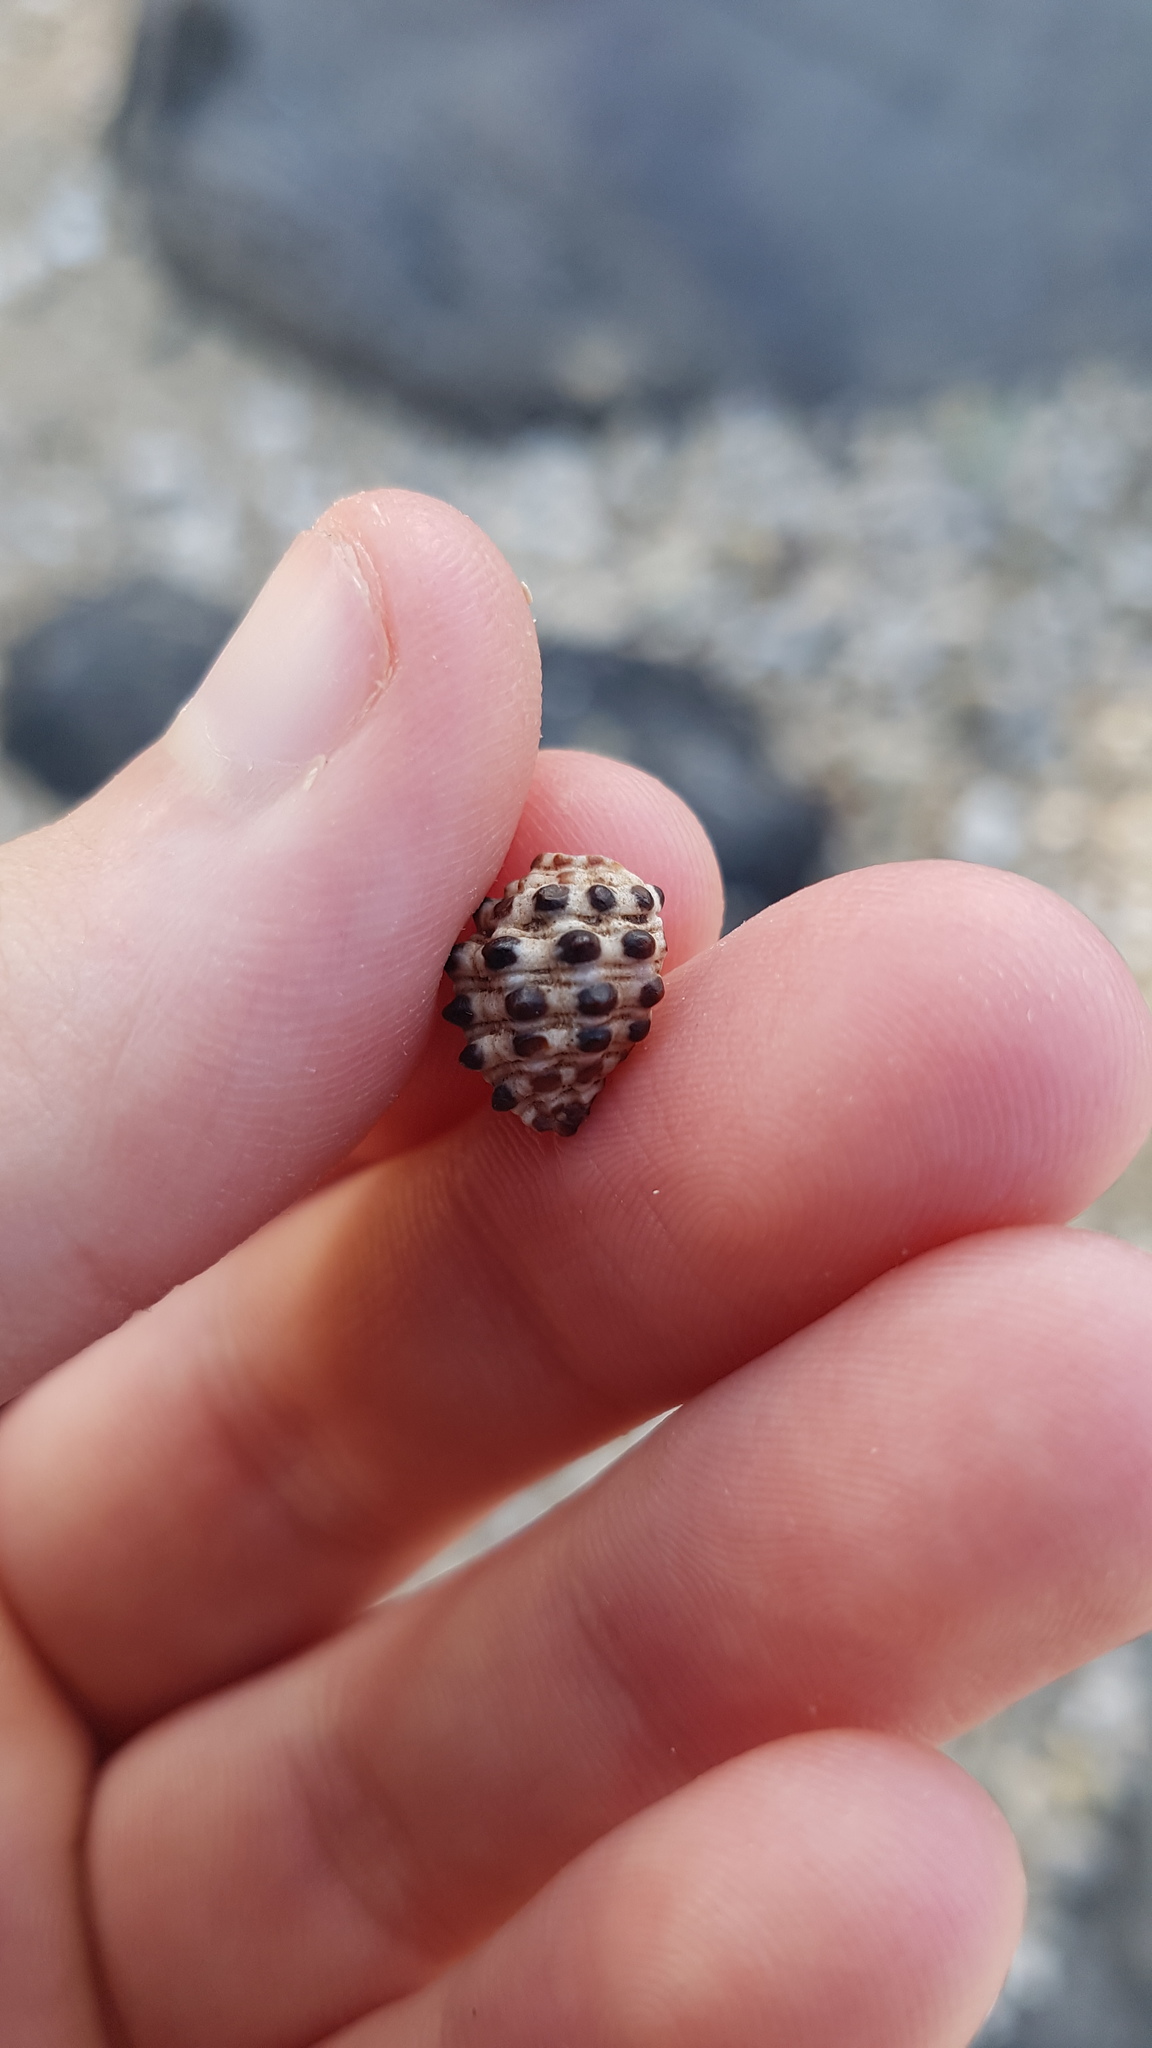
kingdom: Animalia
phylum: Mollusca
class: Gastropoda
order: Neogastropoda
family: Muricidae
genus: Morula
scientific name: Morula uva
